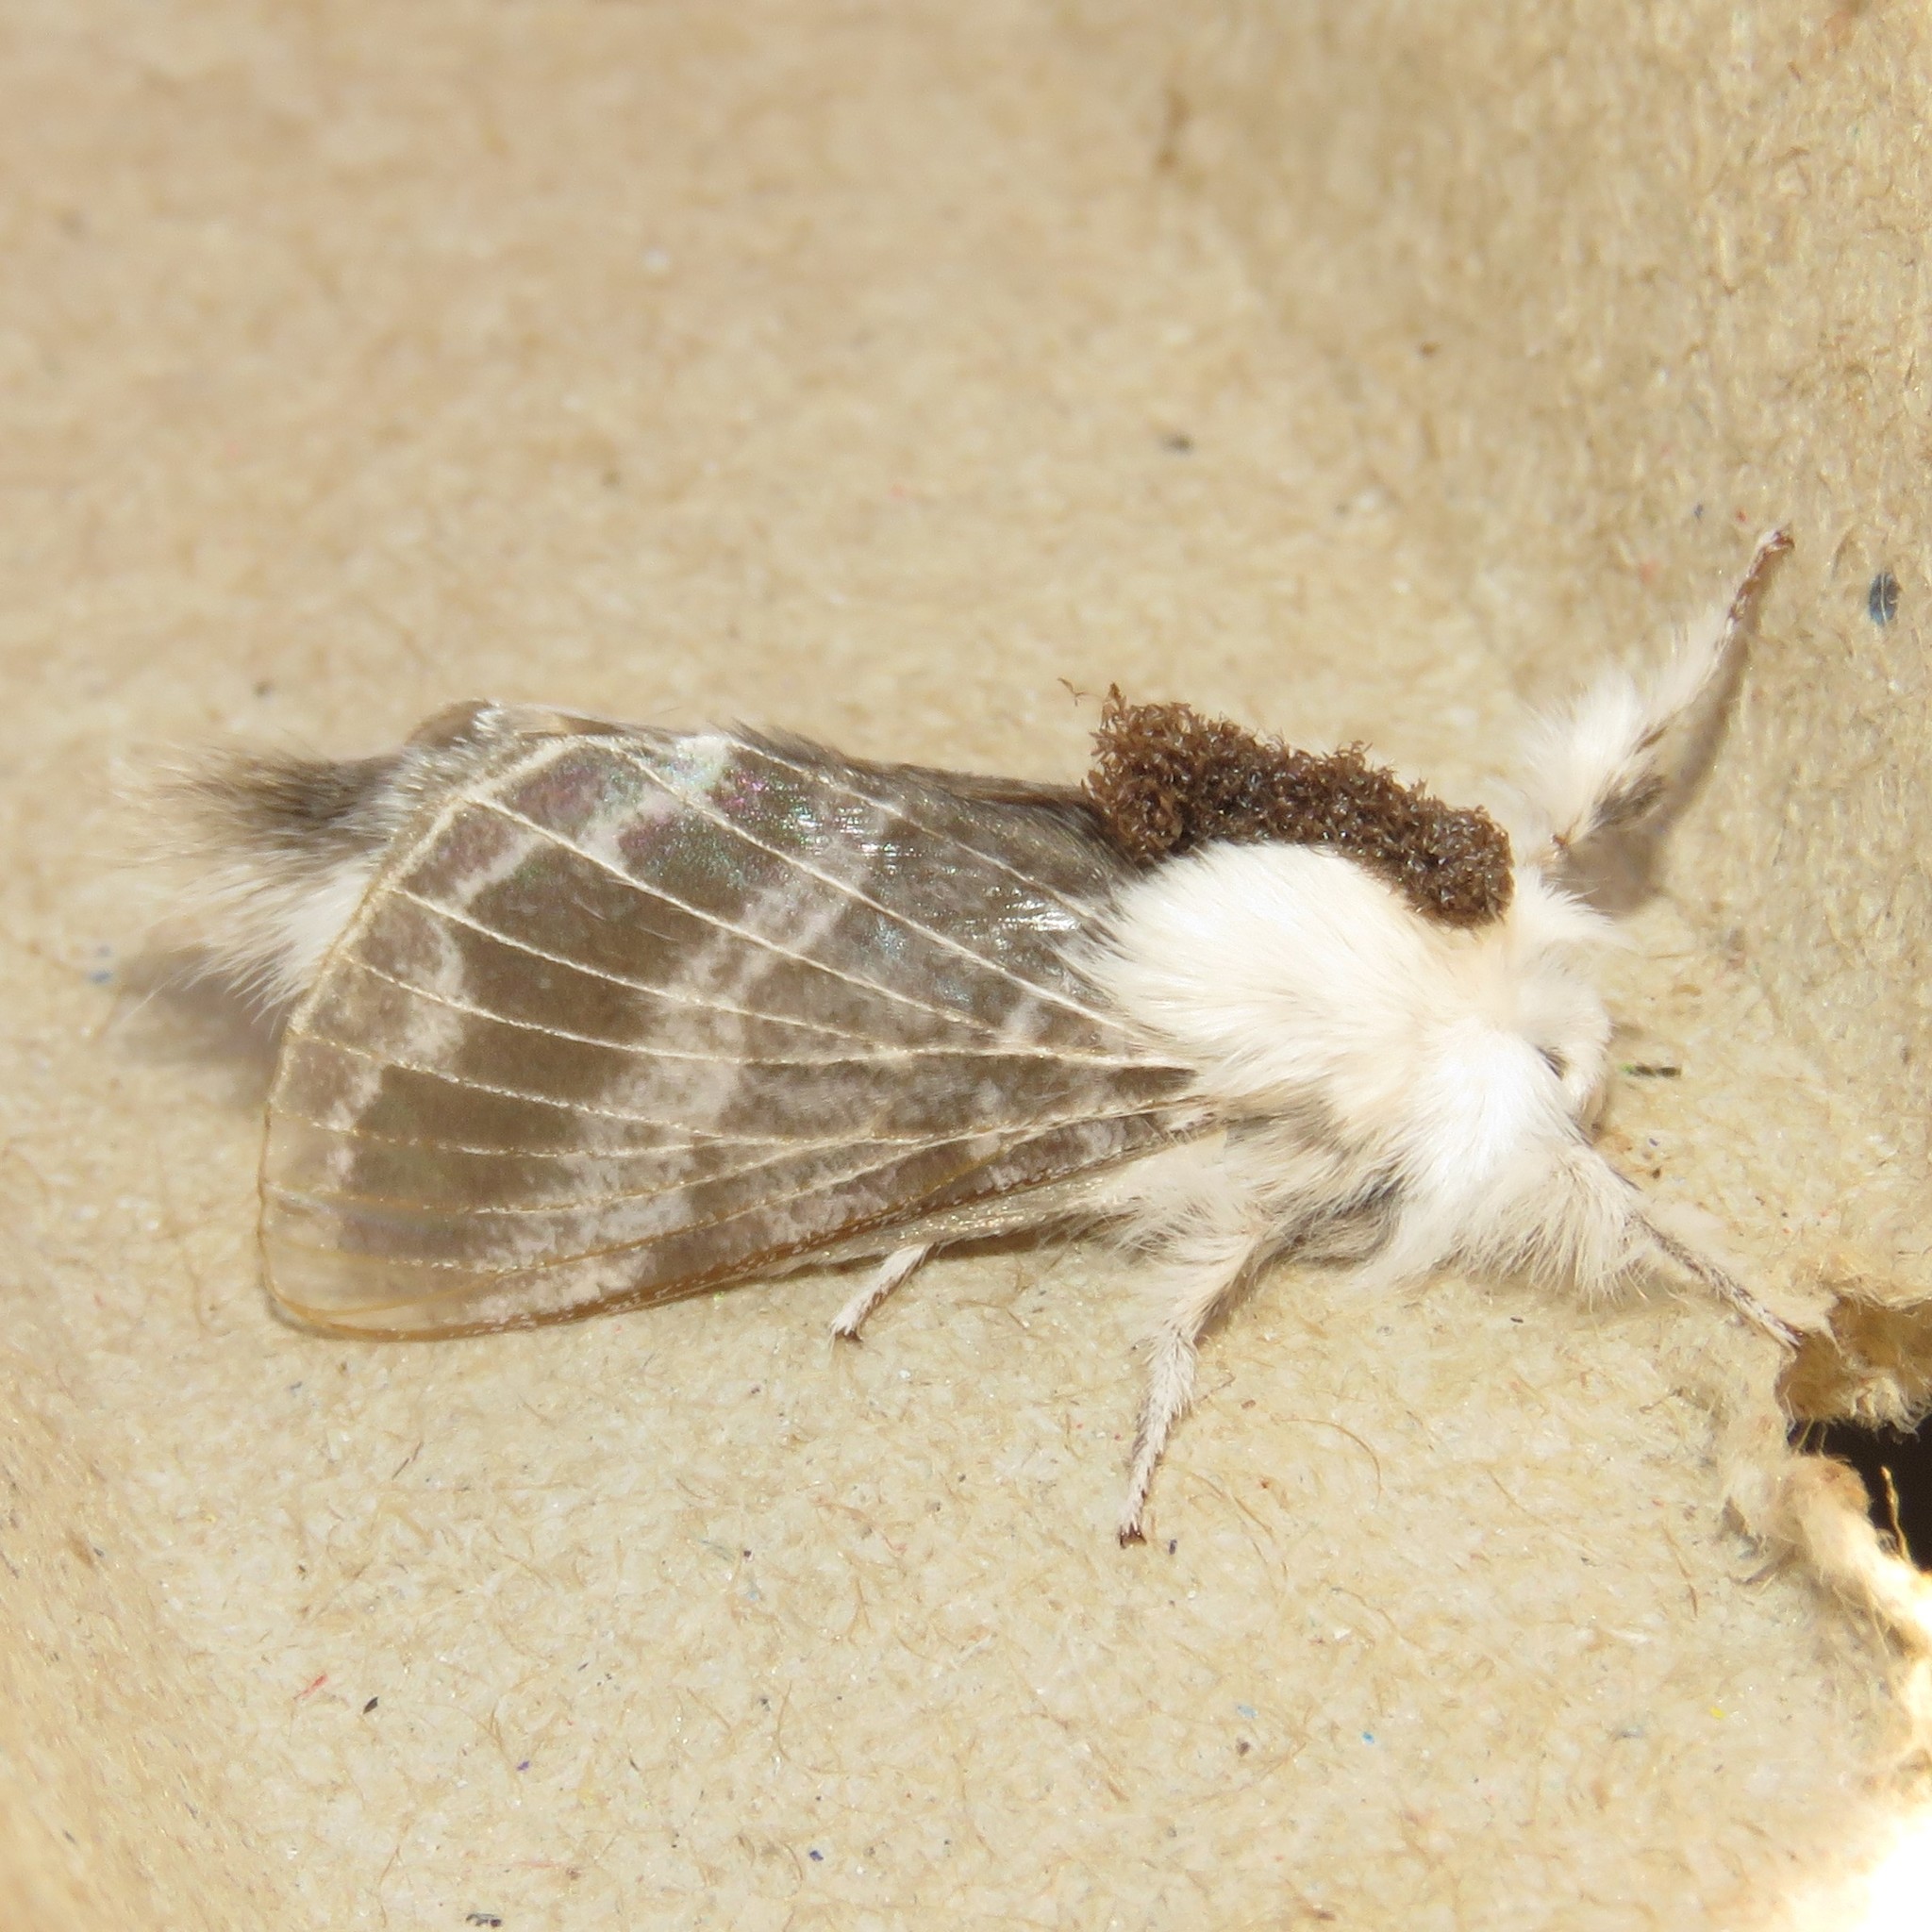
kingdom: Animalia
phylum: Arthropoda
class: Insecta
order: Lepidoptera
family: Lasiocampidae
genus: Tolype
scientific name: Tolype velleda
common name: Large tolype moth
